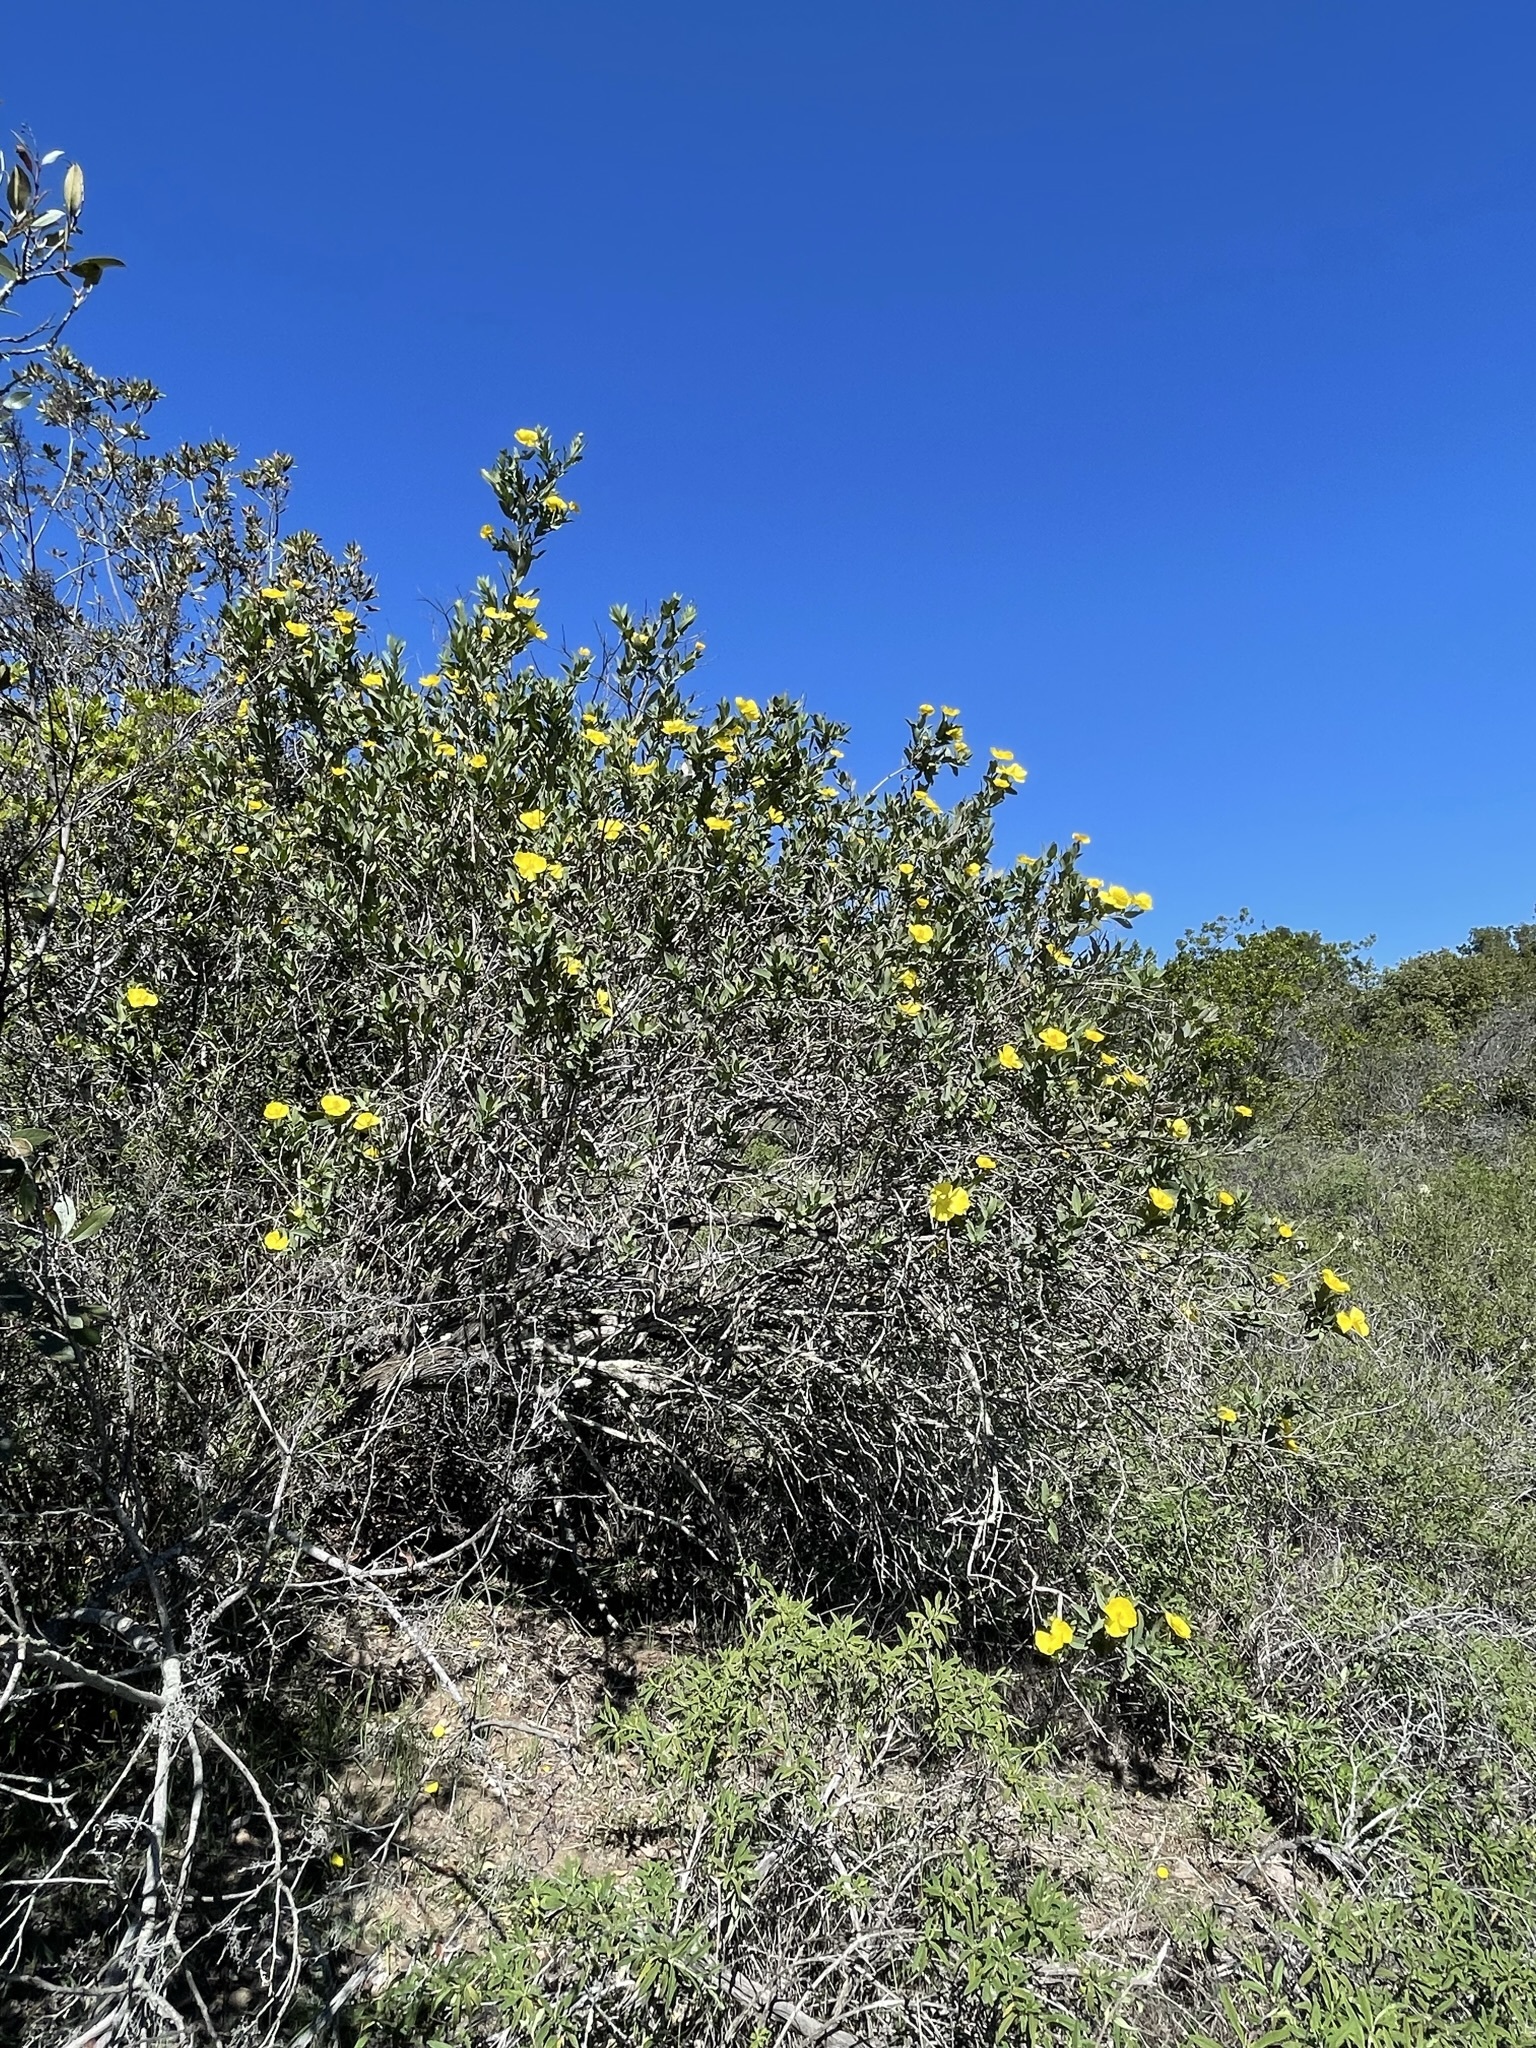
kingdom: Plantae
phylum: Tracheophyta
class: Magnoliopsida
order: Ranunculales
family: Papaveraceae
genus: Dendromecon
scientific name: Dendromecon harfordii
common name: Island tree-poppy
